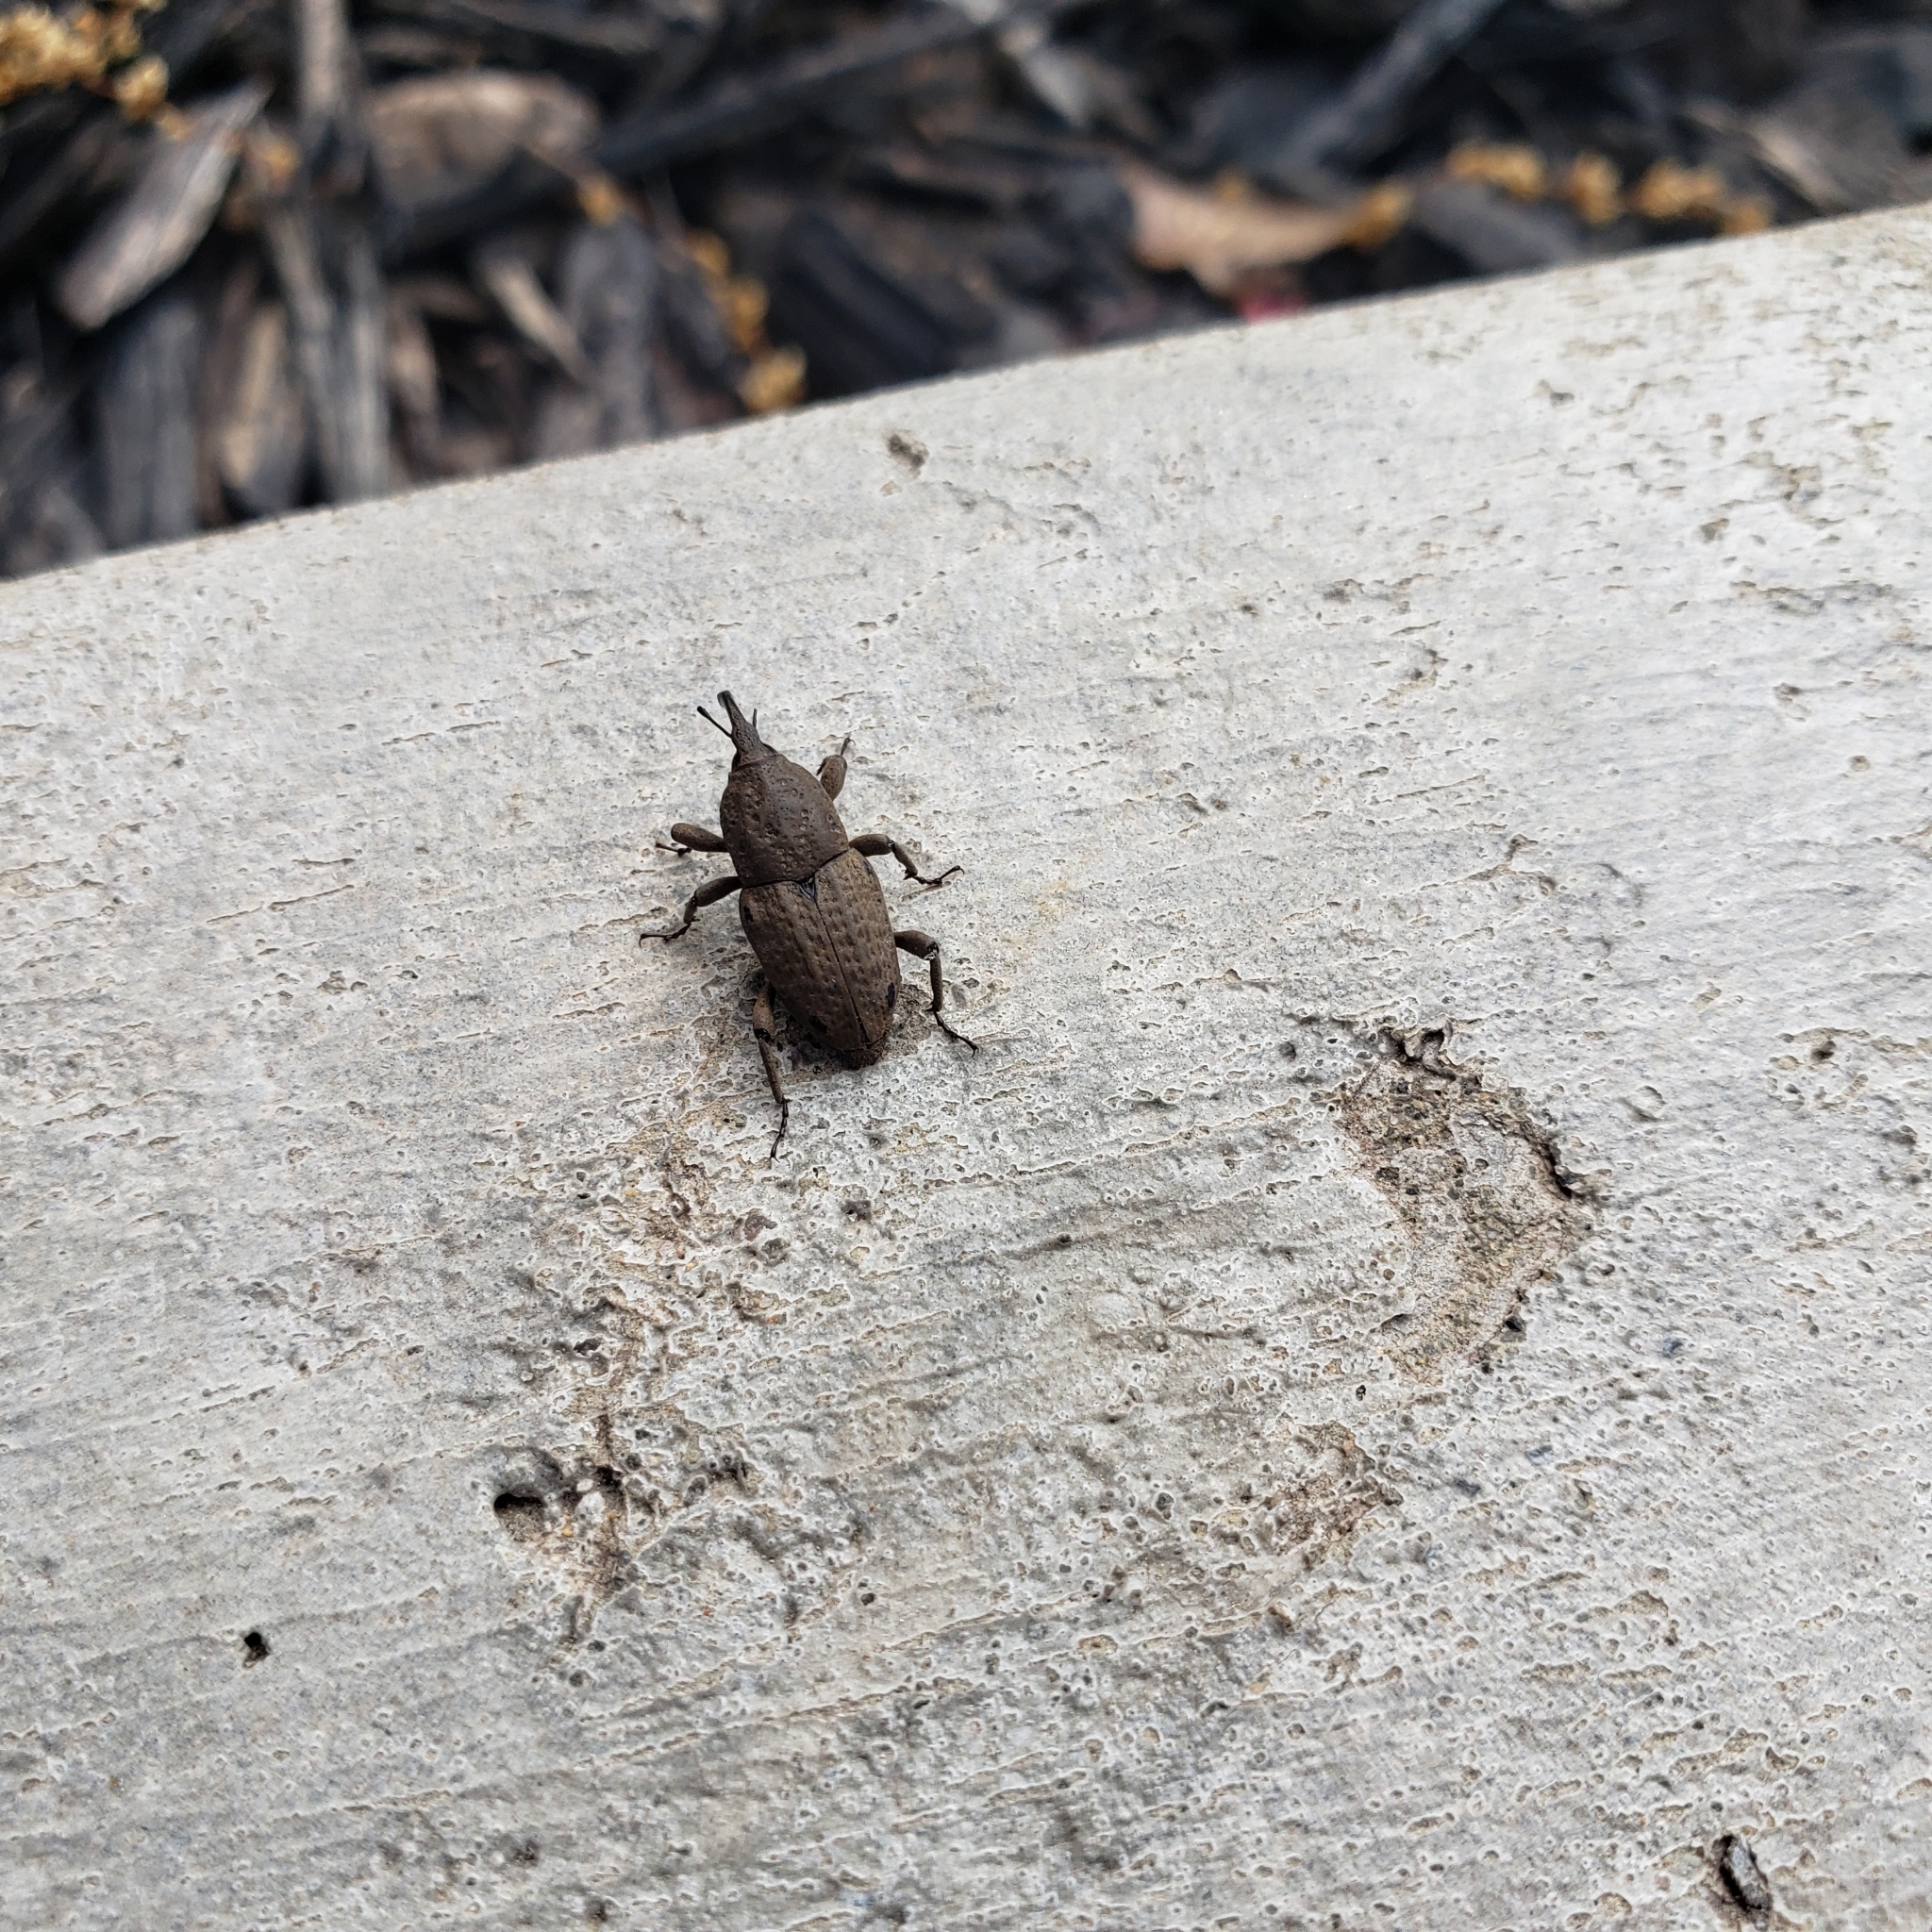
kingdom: Animalia
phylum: Arthropoda
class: Insecta
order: Coleoptera
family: Dryophthoridae
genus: Sphenophorus
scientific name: Sphenophorus callosus
